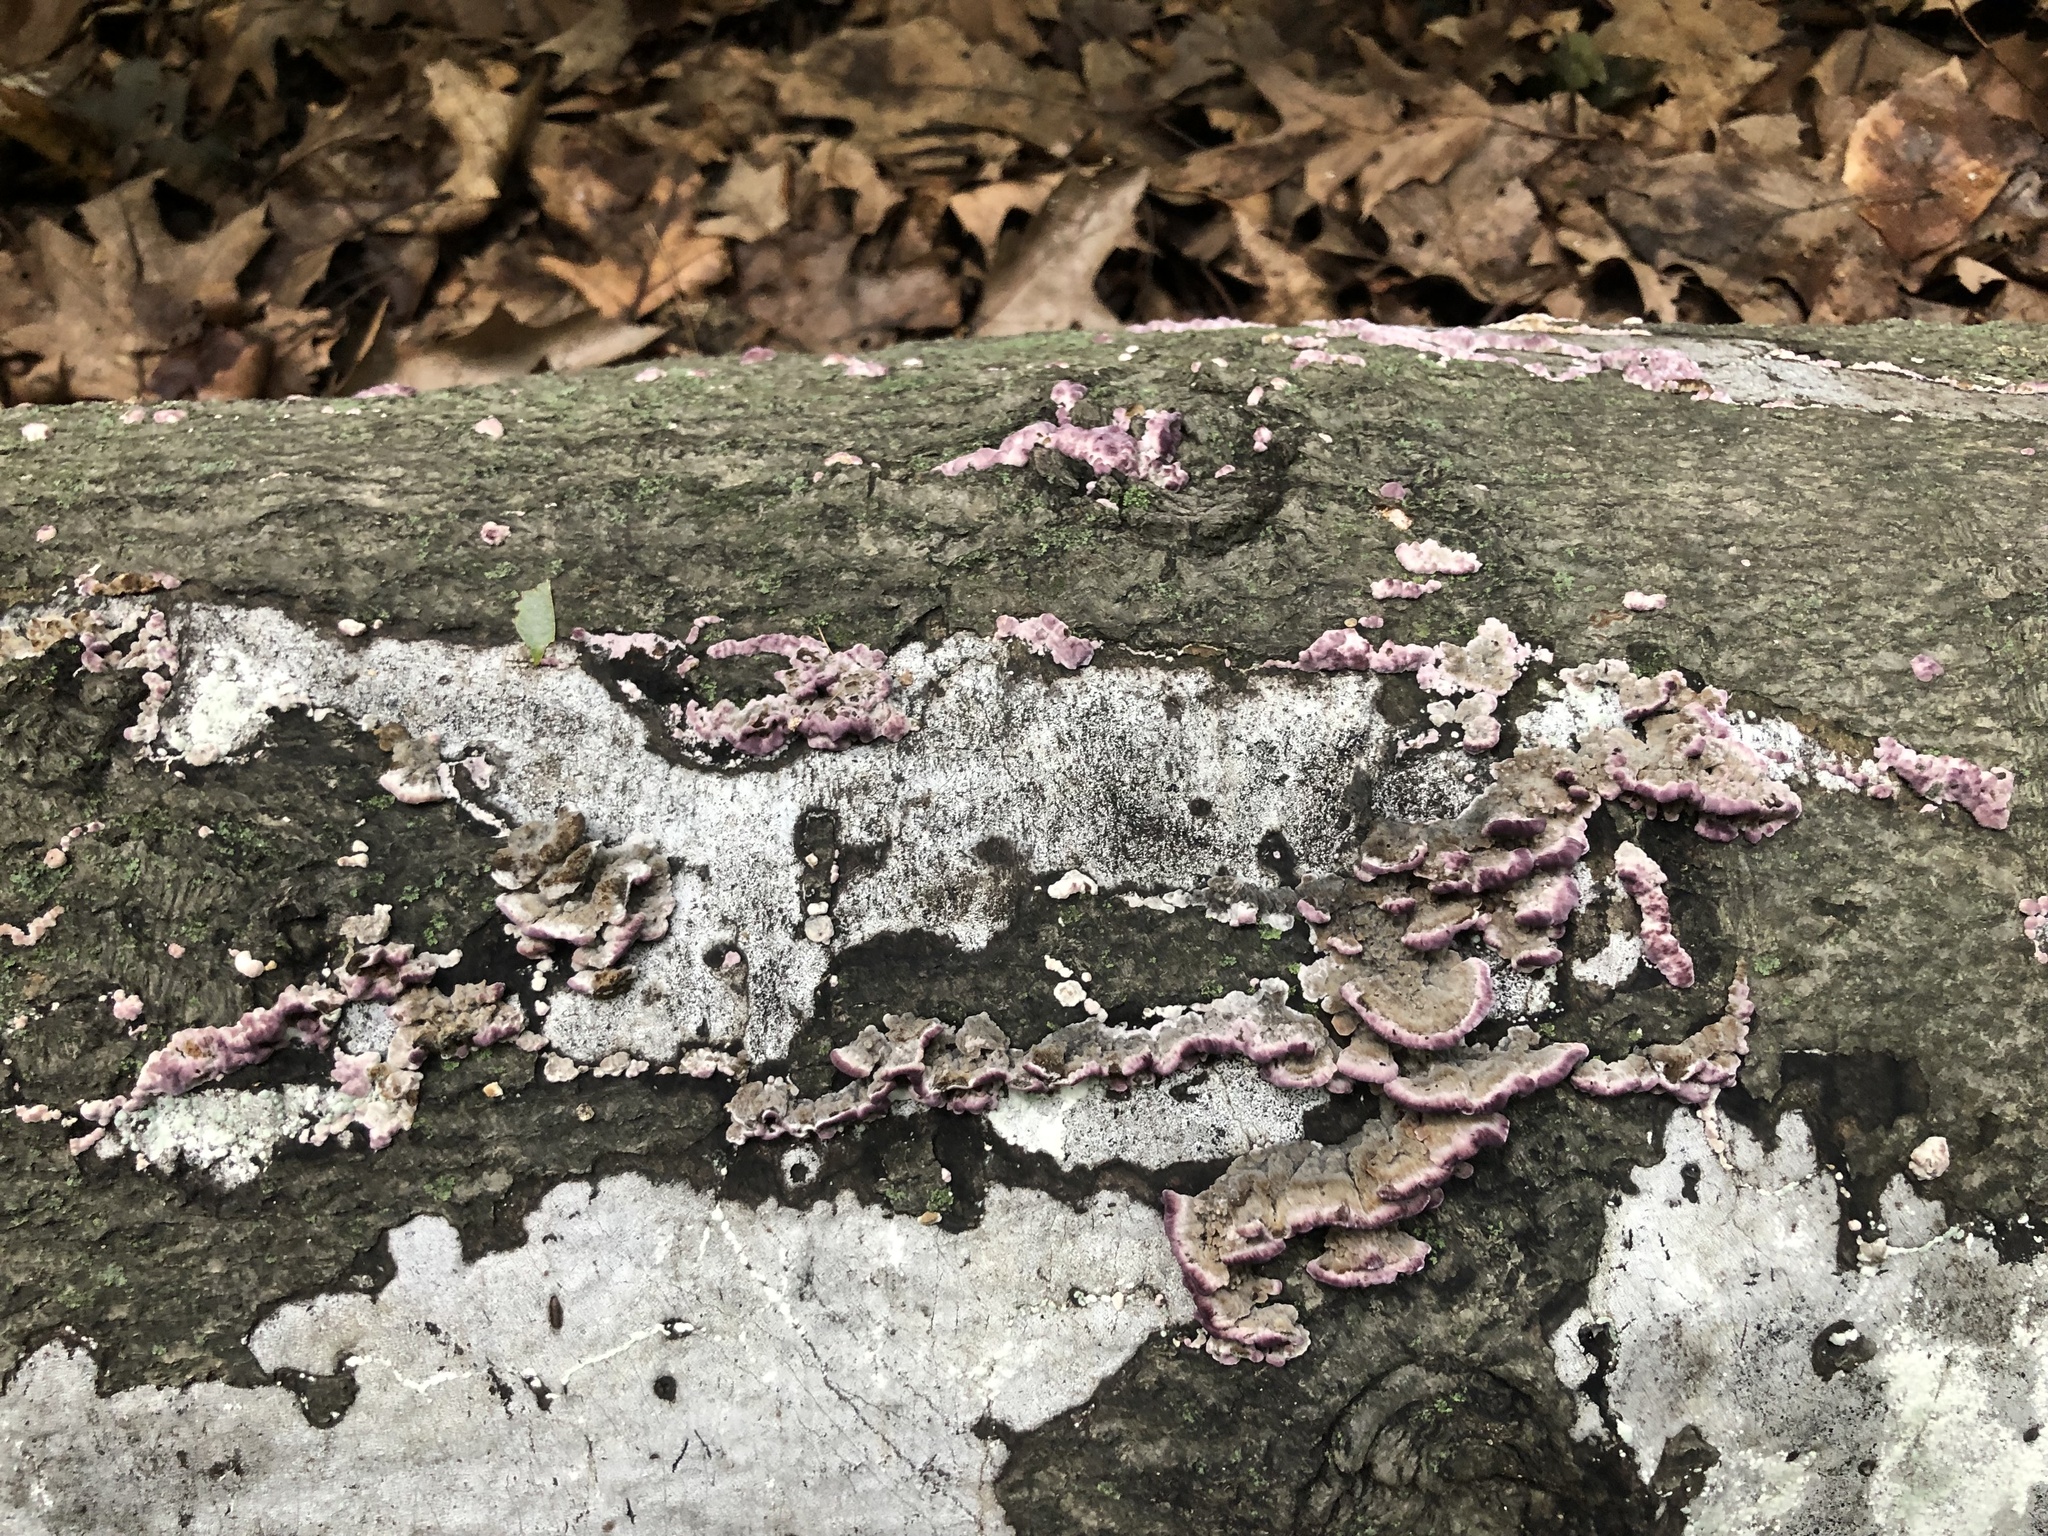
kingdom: Fungi
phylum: Basidiomycota
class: Agaricomycetes
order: Hymenochaetales
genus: Trichaptum
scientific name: Trichaptum biforme
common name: Violet-toothed polypore
